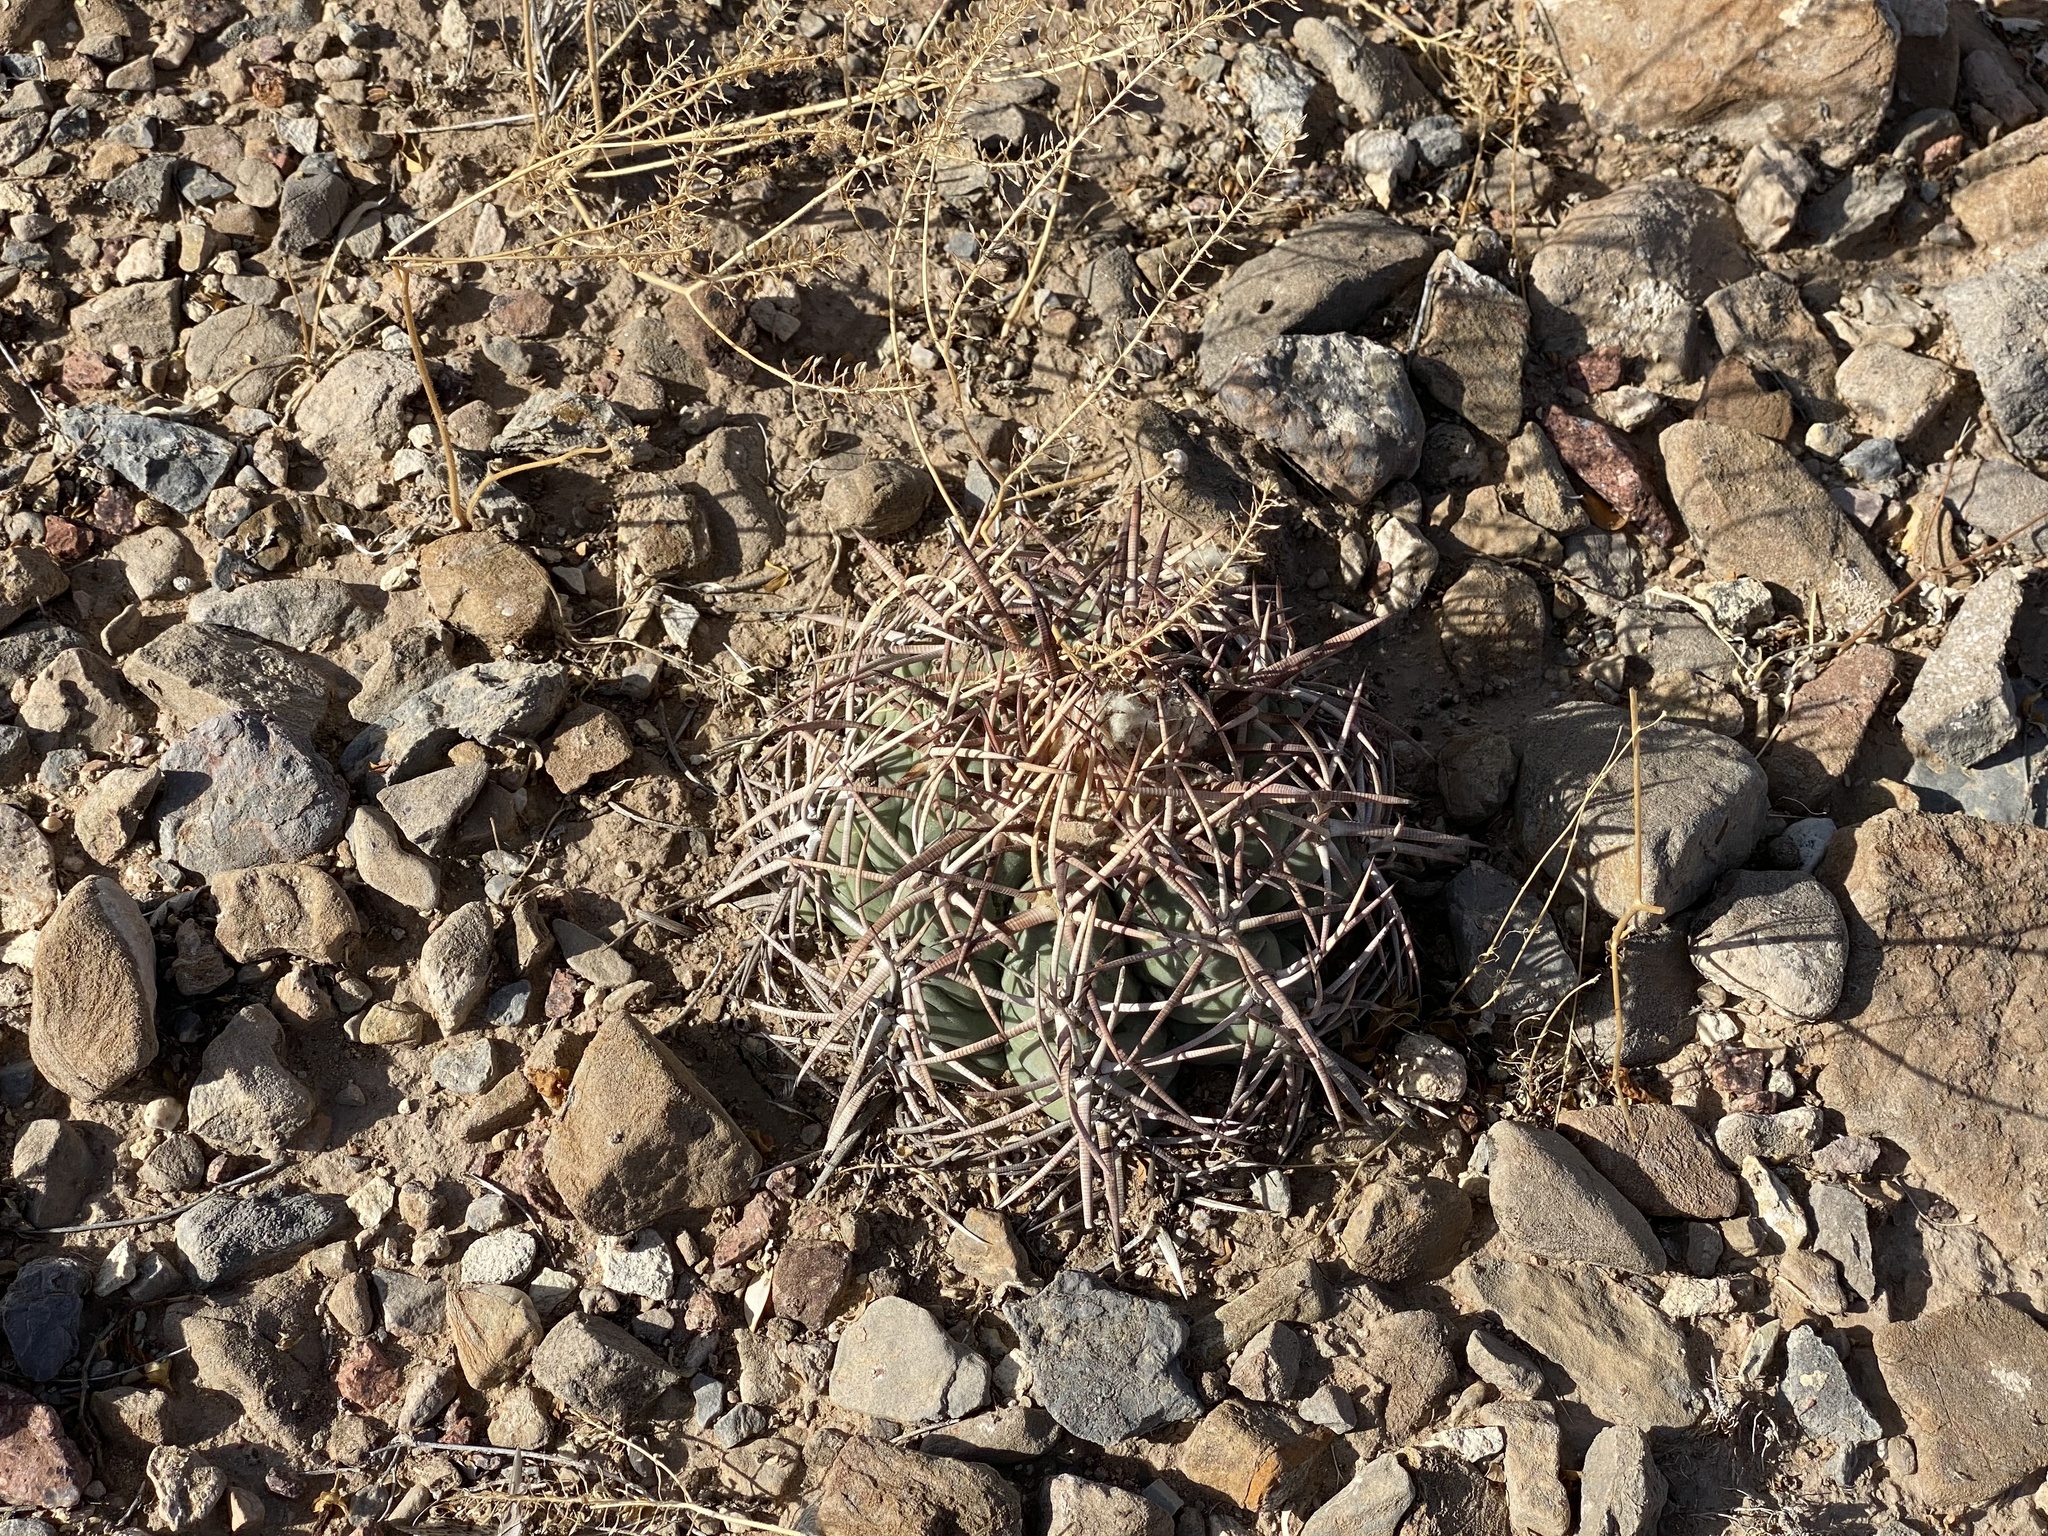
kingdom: Plantae
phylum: Tracheophyta
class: Magnoliopsida
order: Caryophyllales
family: Cactaceae
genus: Echinocactus
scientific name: Echinocactus horizonthalonius
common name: Devilshead
